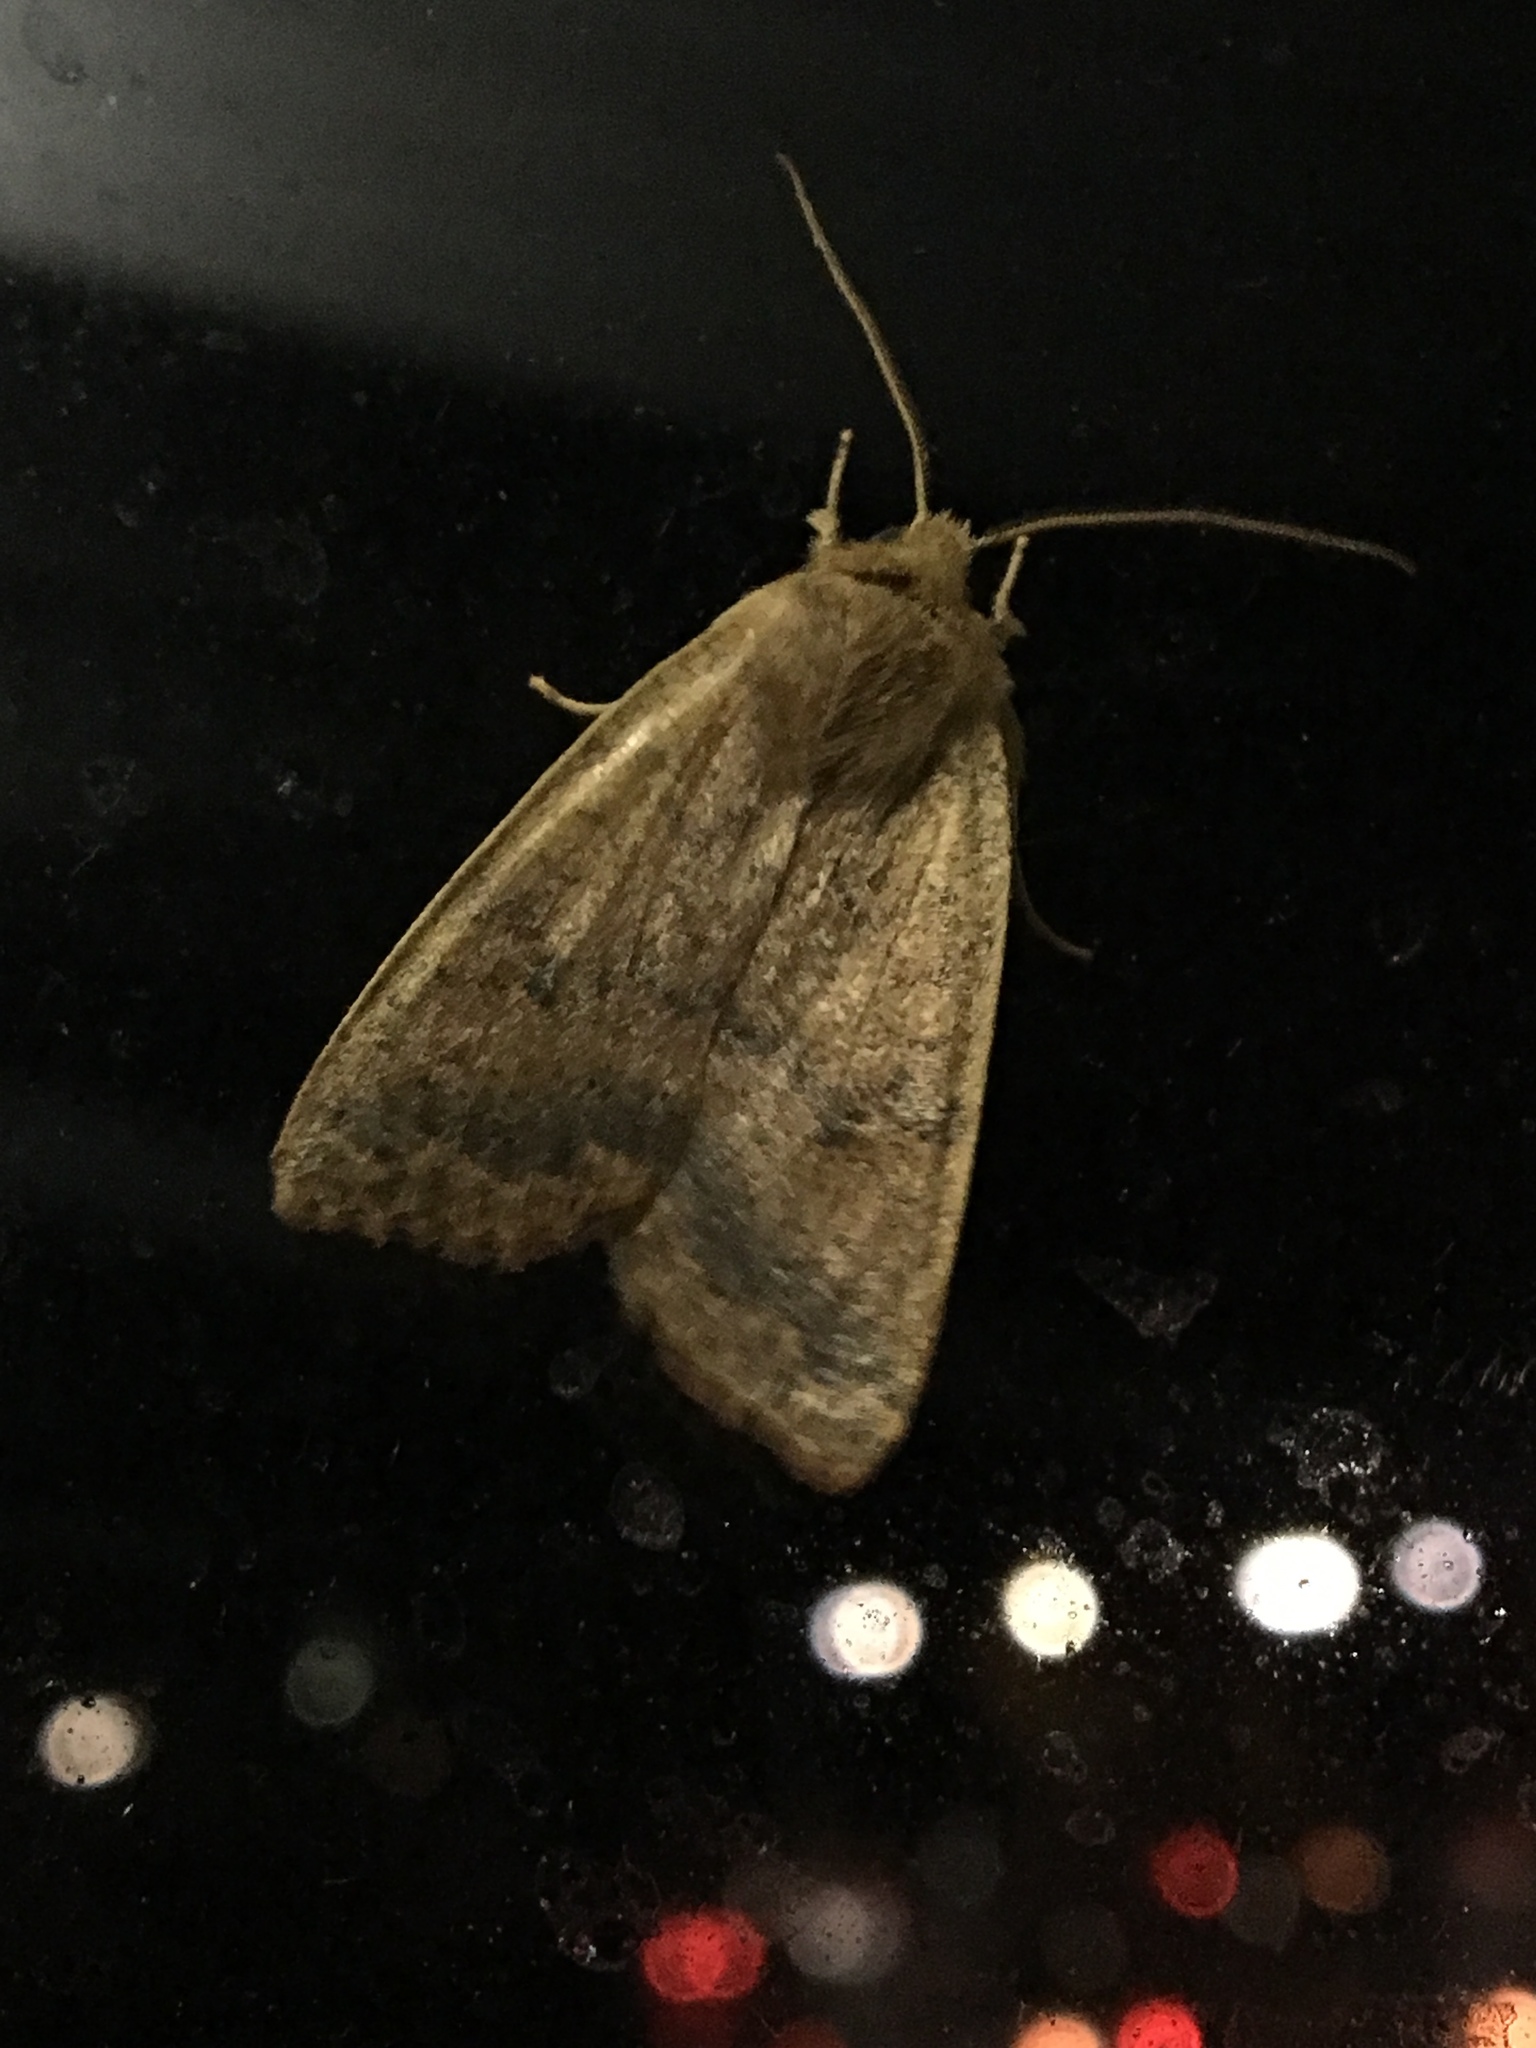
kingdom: Animalia
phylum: Arthropoda
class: Insecta
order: Lepidoptera
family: Noctuidae
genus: Agrochola
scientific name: Agrochola bicolorago
